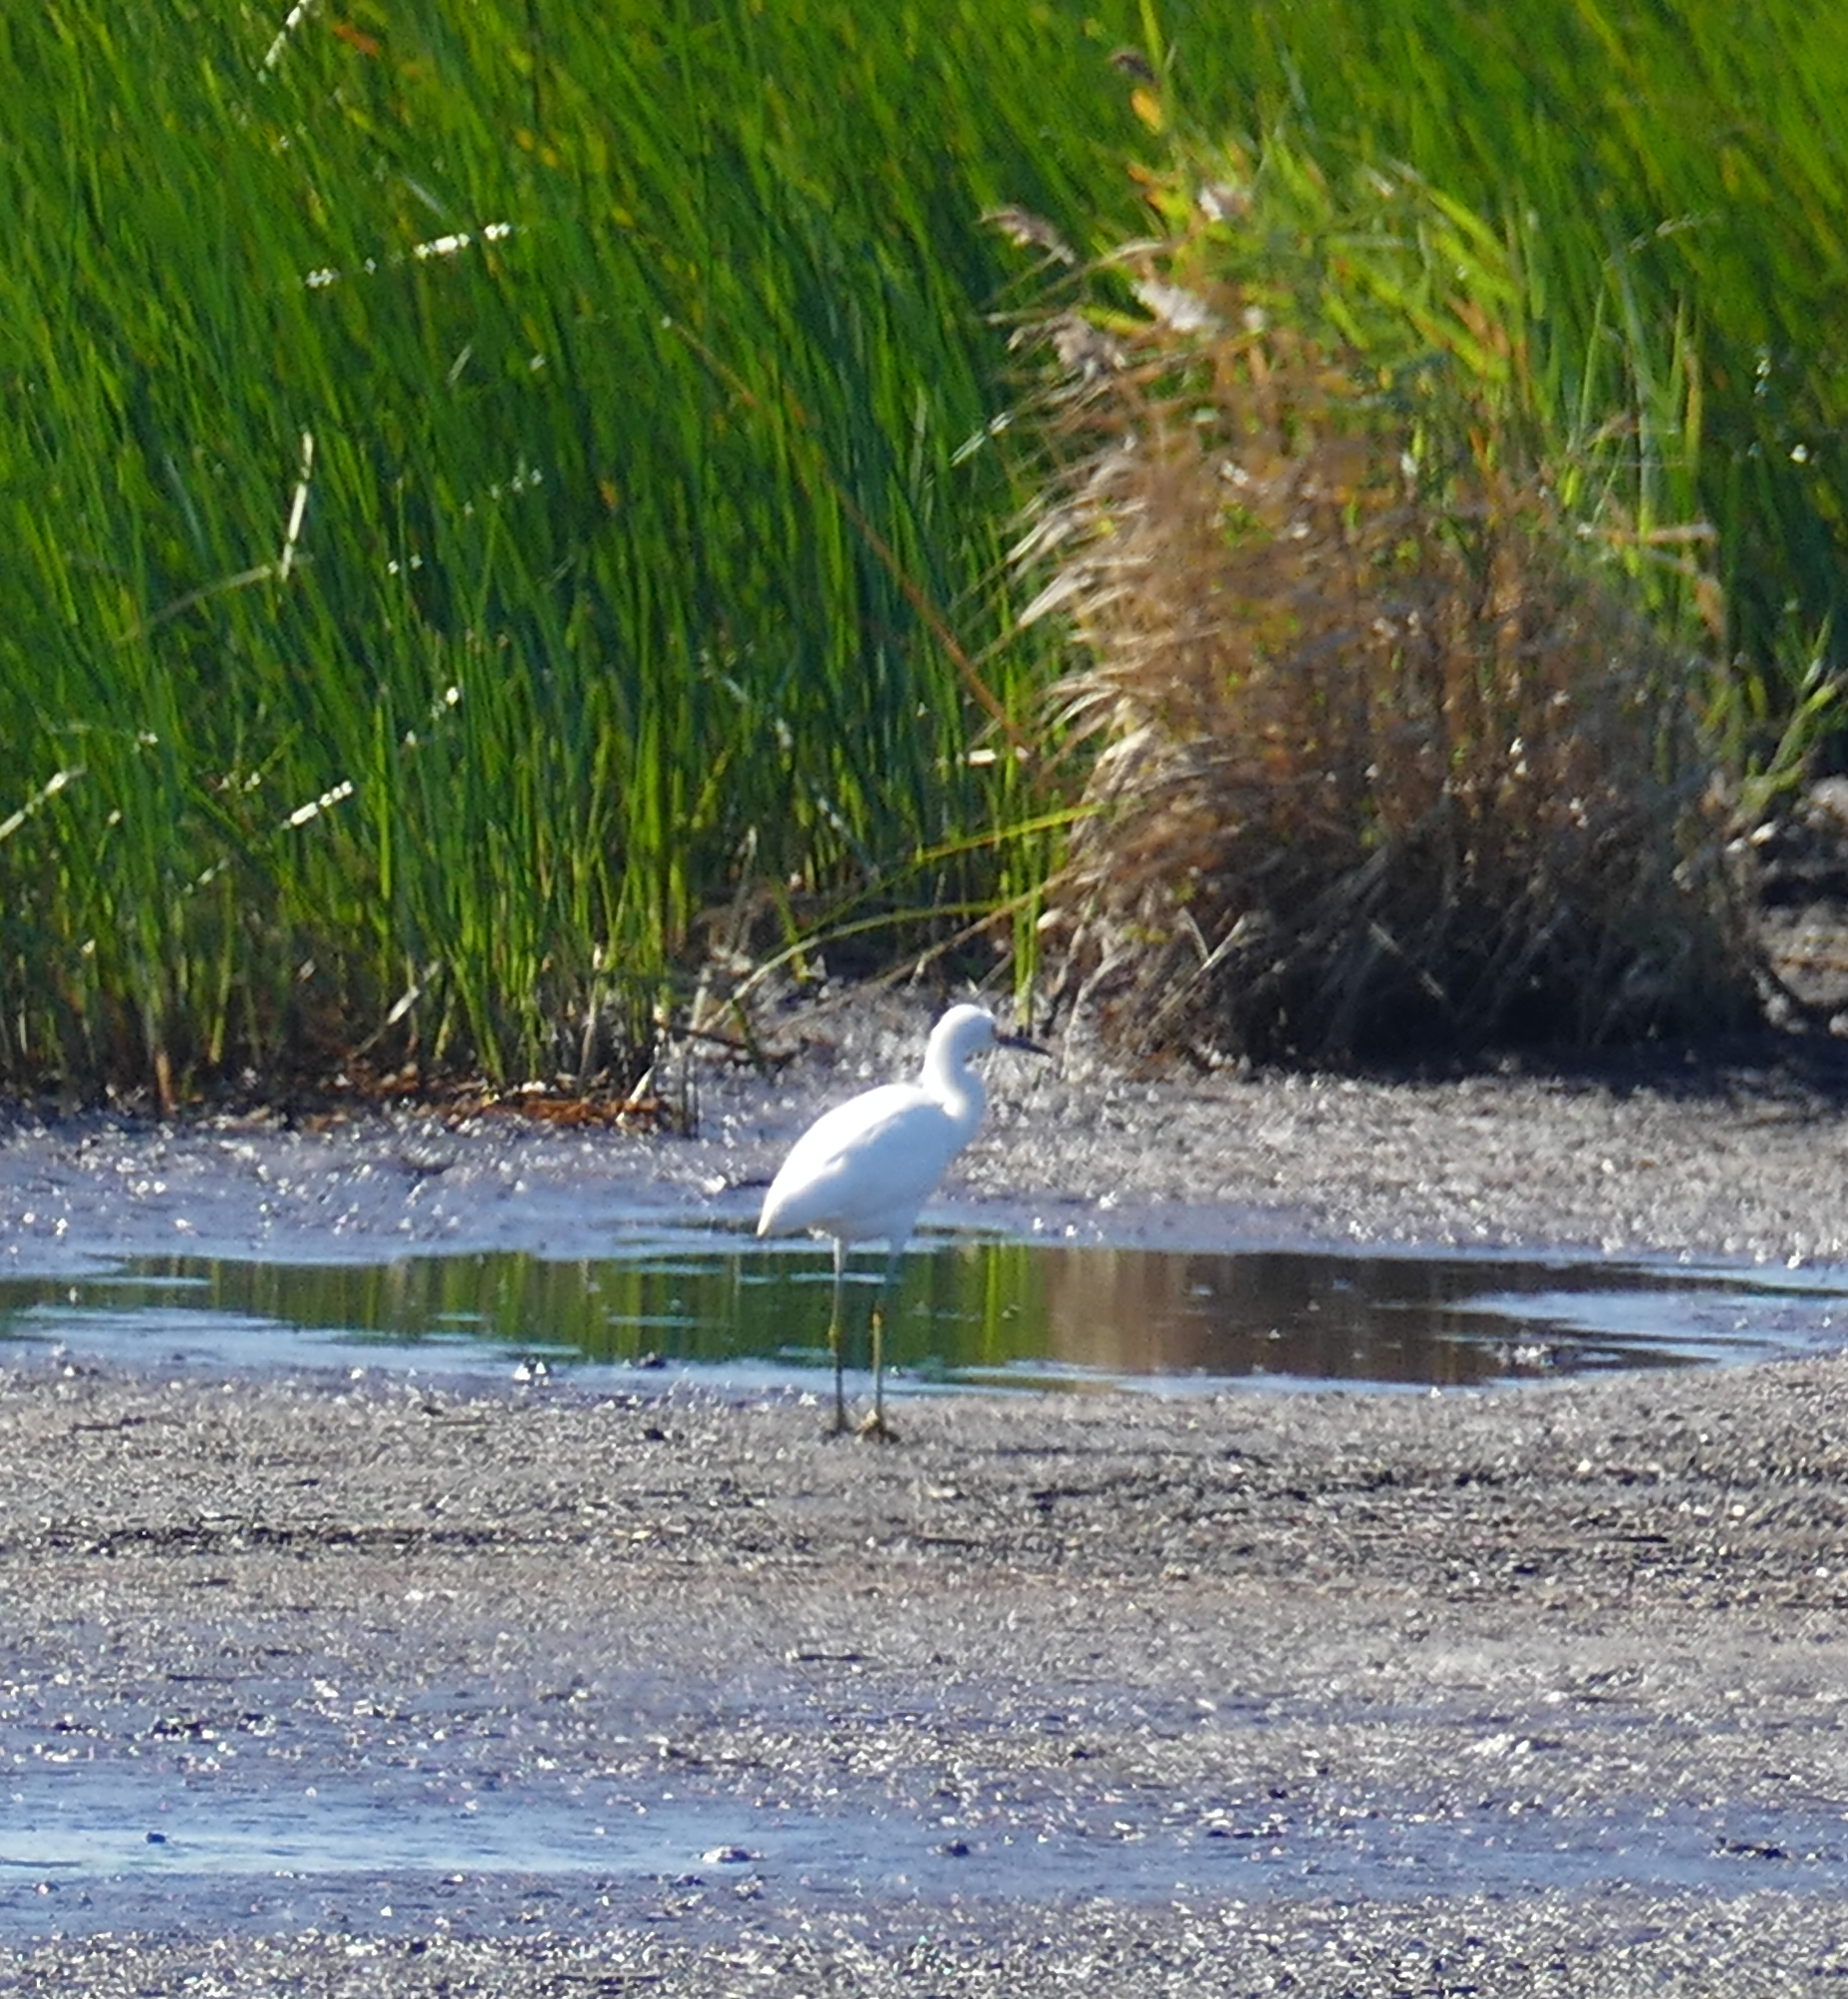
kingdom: Animalia
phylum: Chordata
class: Aves
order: Pelecaniformes
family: Ardeidae
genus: Egretta
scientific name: Egretta thula
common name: Snowy egret
